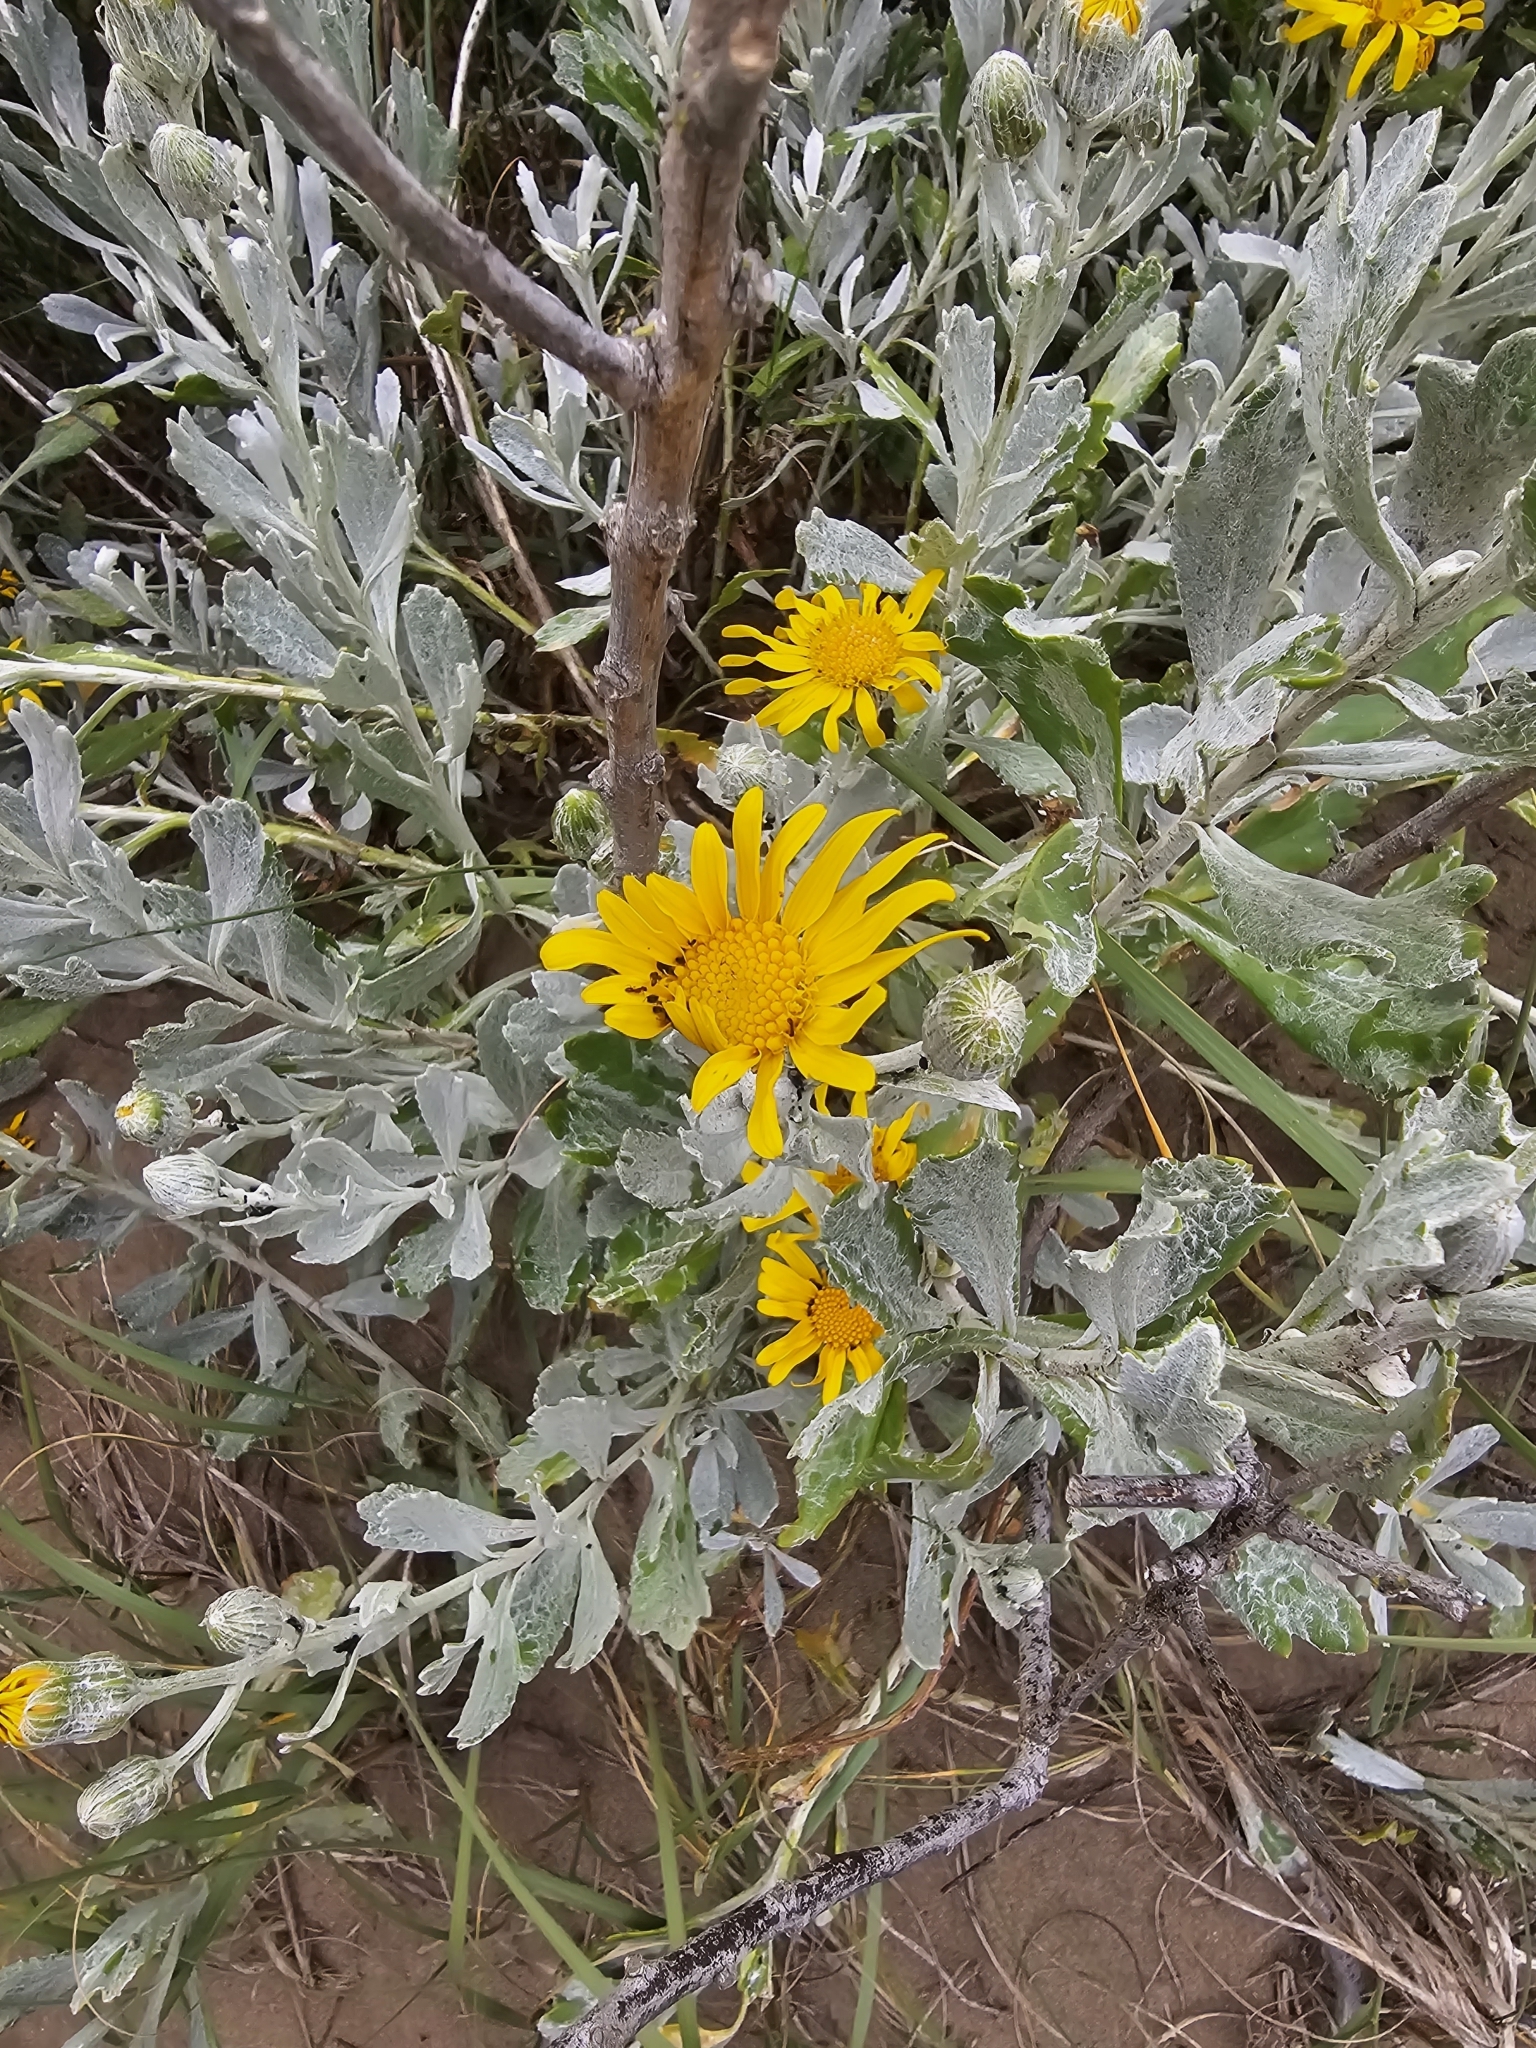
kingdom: Plantae
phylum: Tracheophyta
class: Magnoliopsida
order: Asterales
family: Asteraceae
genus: Senecio
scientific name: Senecio crassiflorus
